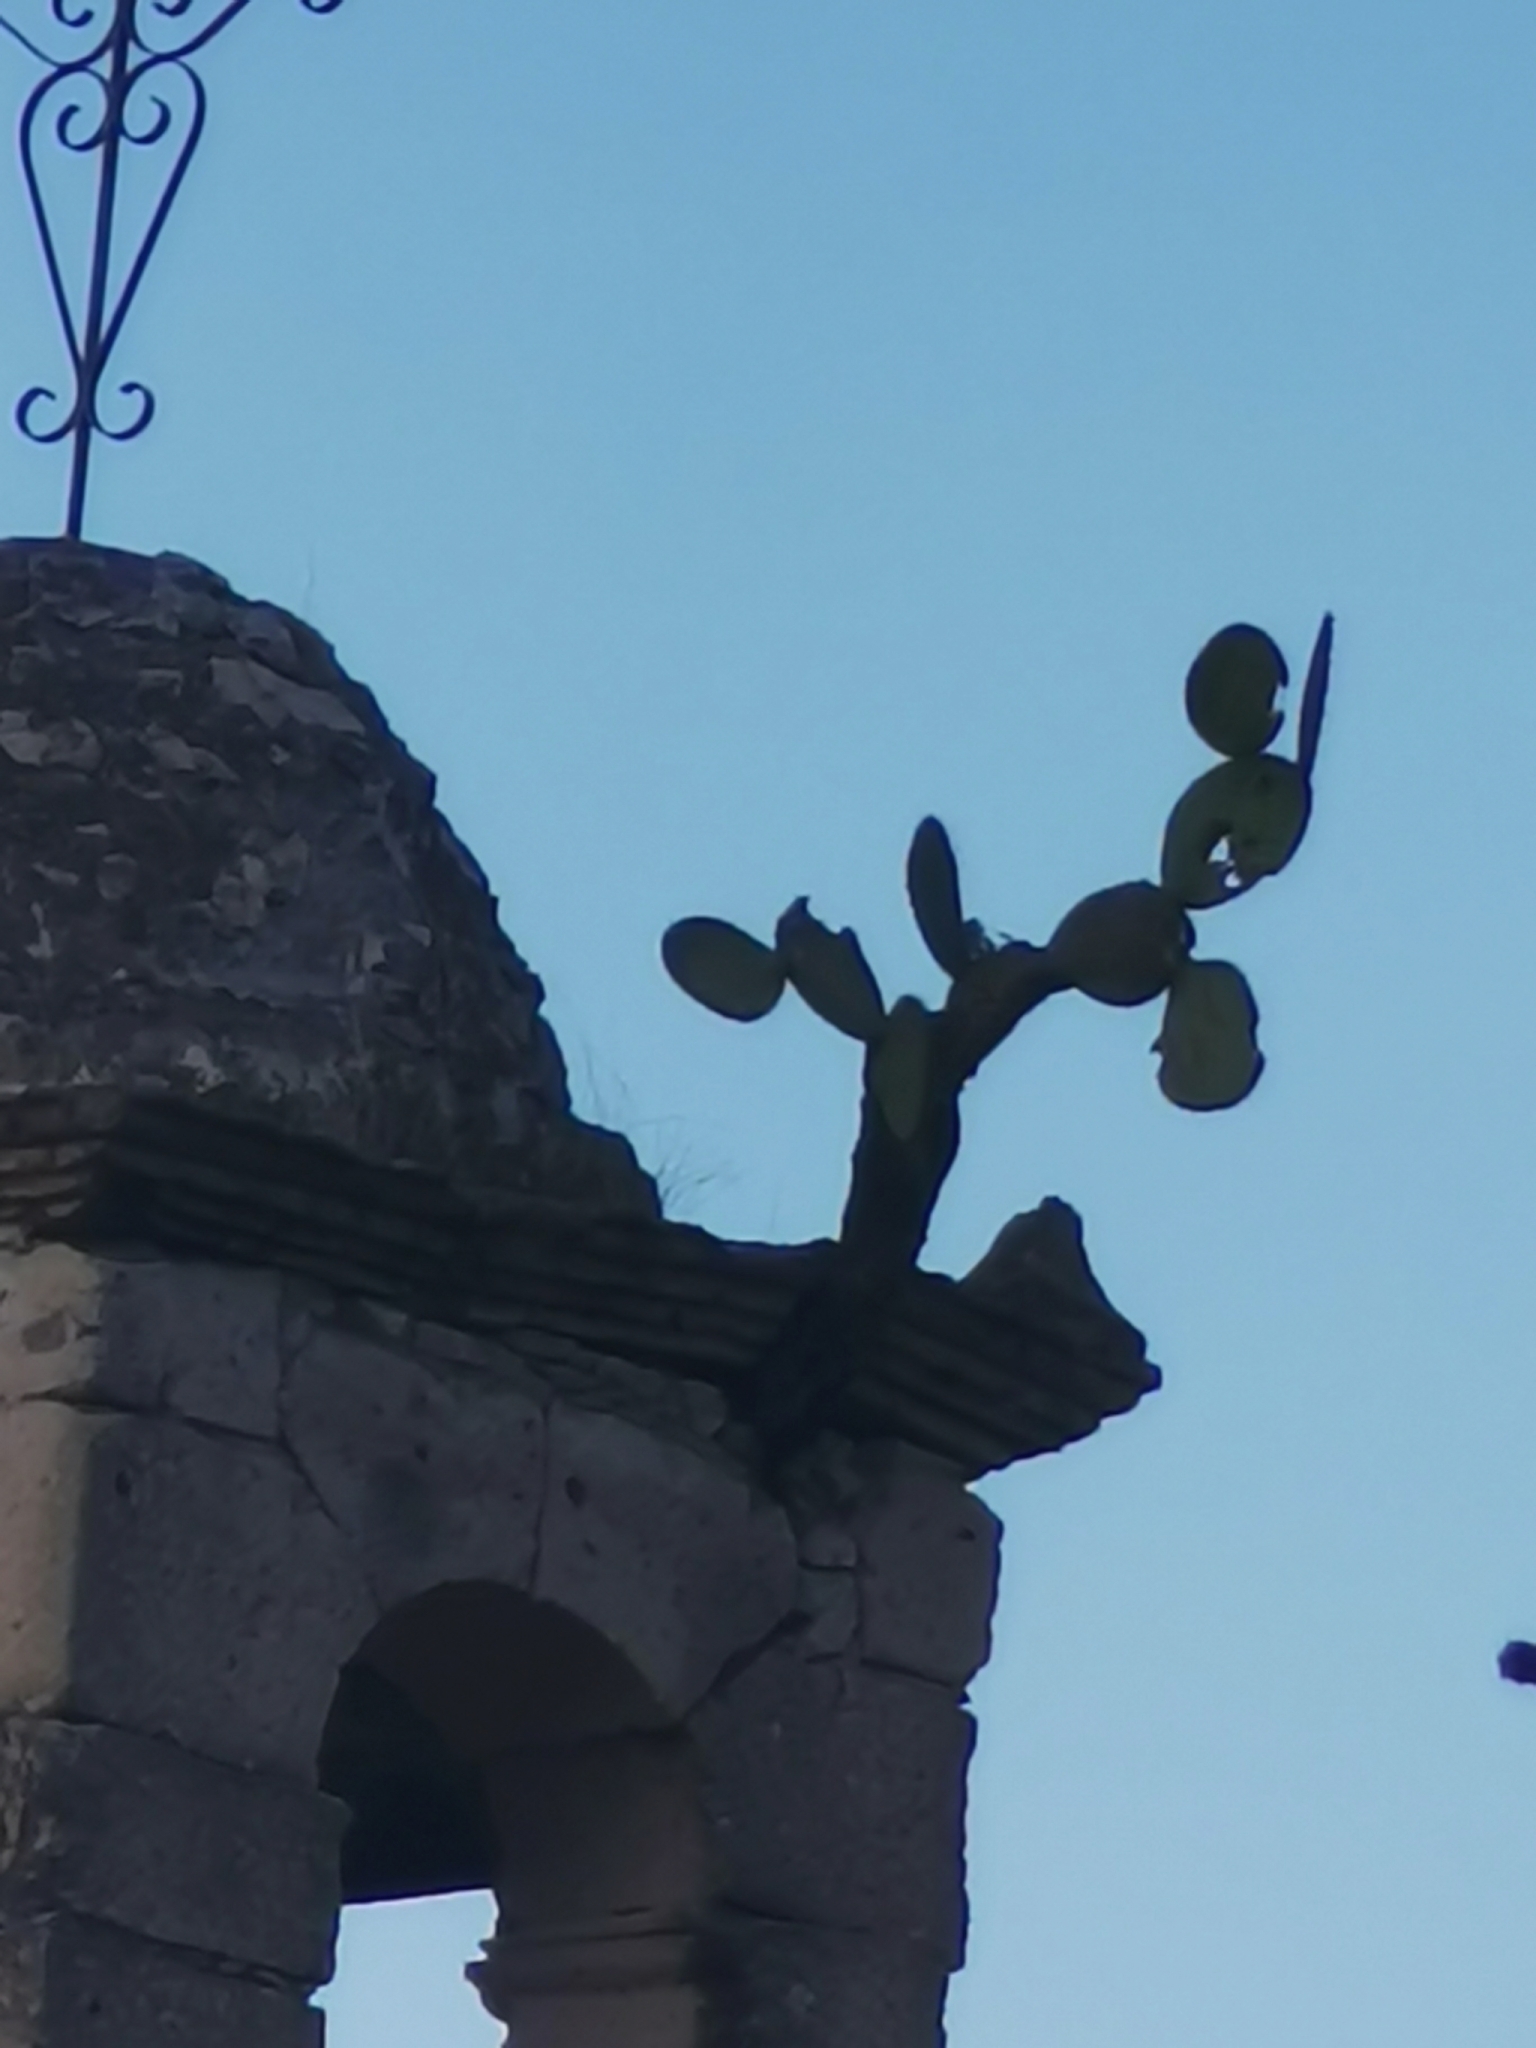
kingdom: Plantae
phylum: Tracheophyta
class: Magnoliopsida
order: Caryophyllales
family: Cactaceae
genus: Opuntia
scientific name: Opuntia leucotricha
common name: Arborescent pricklypear
